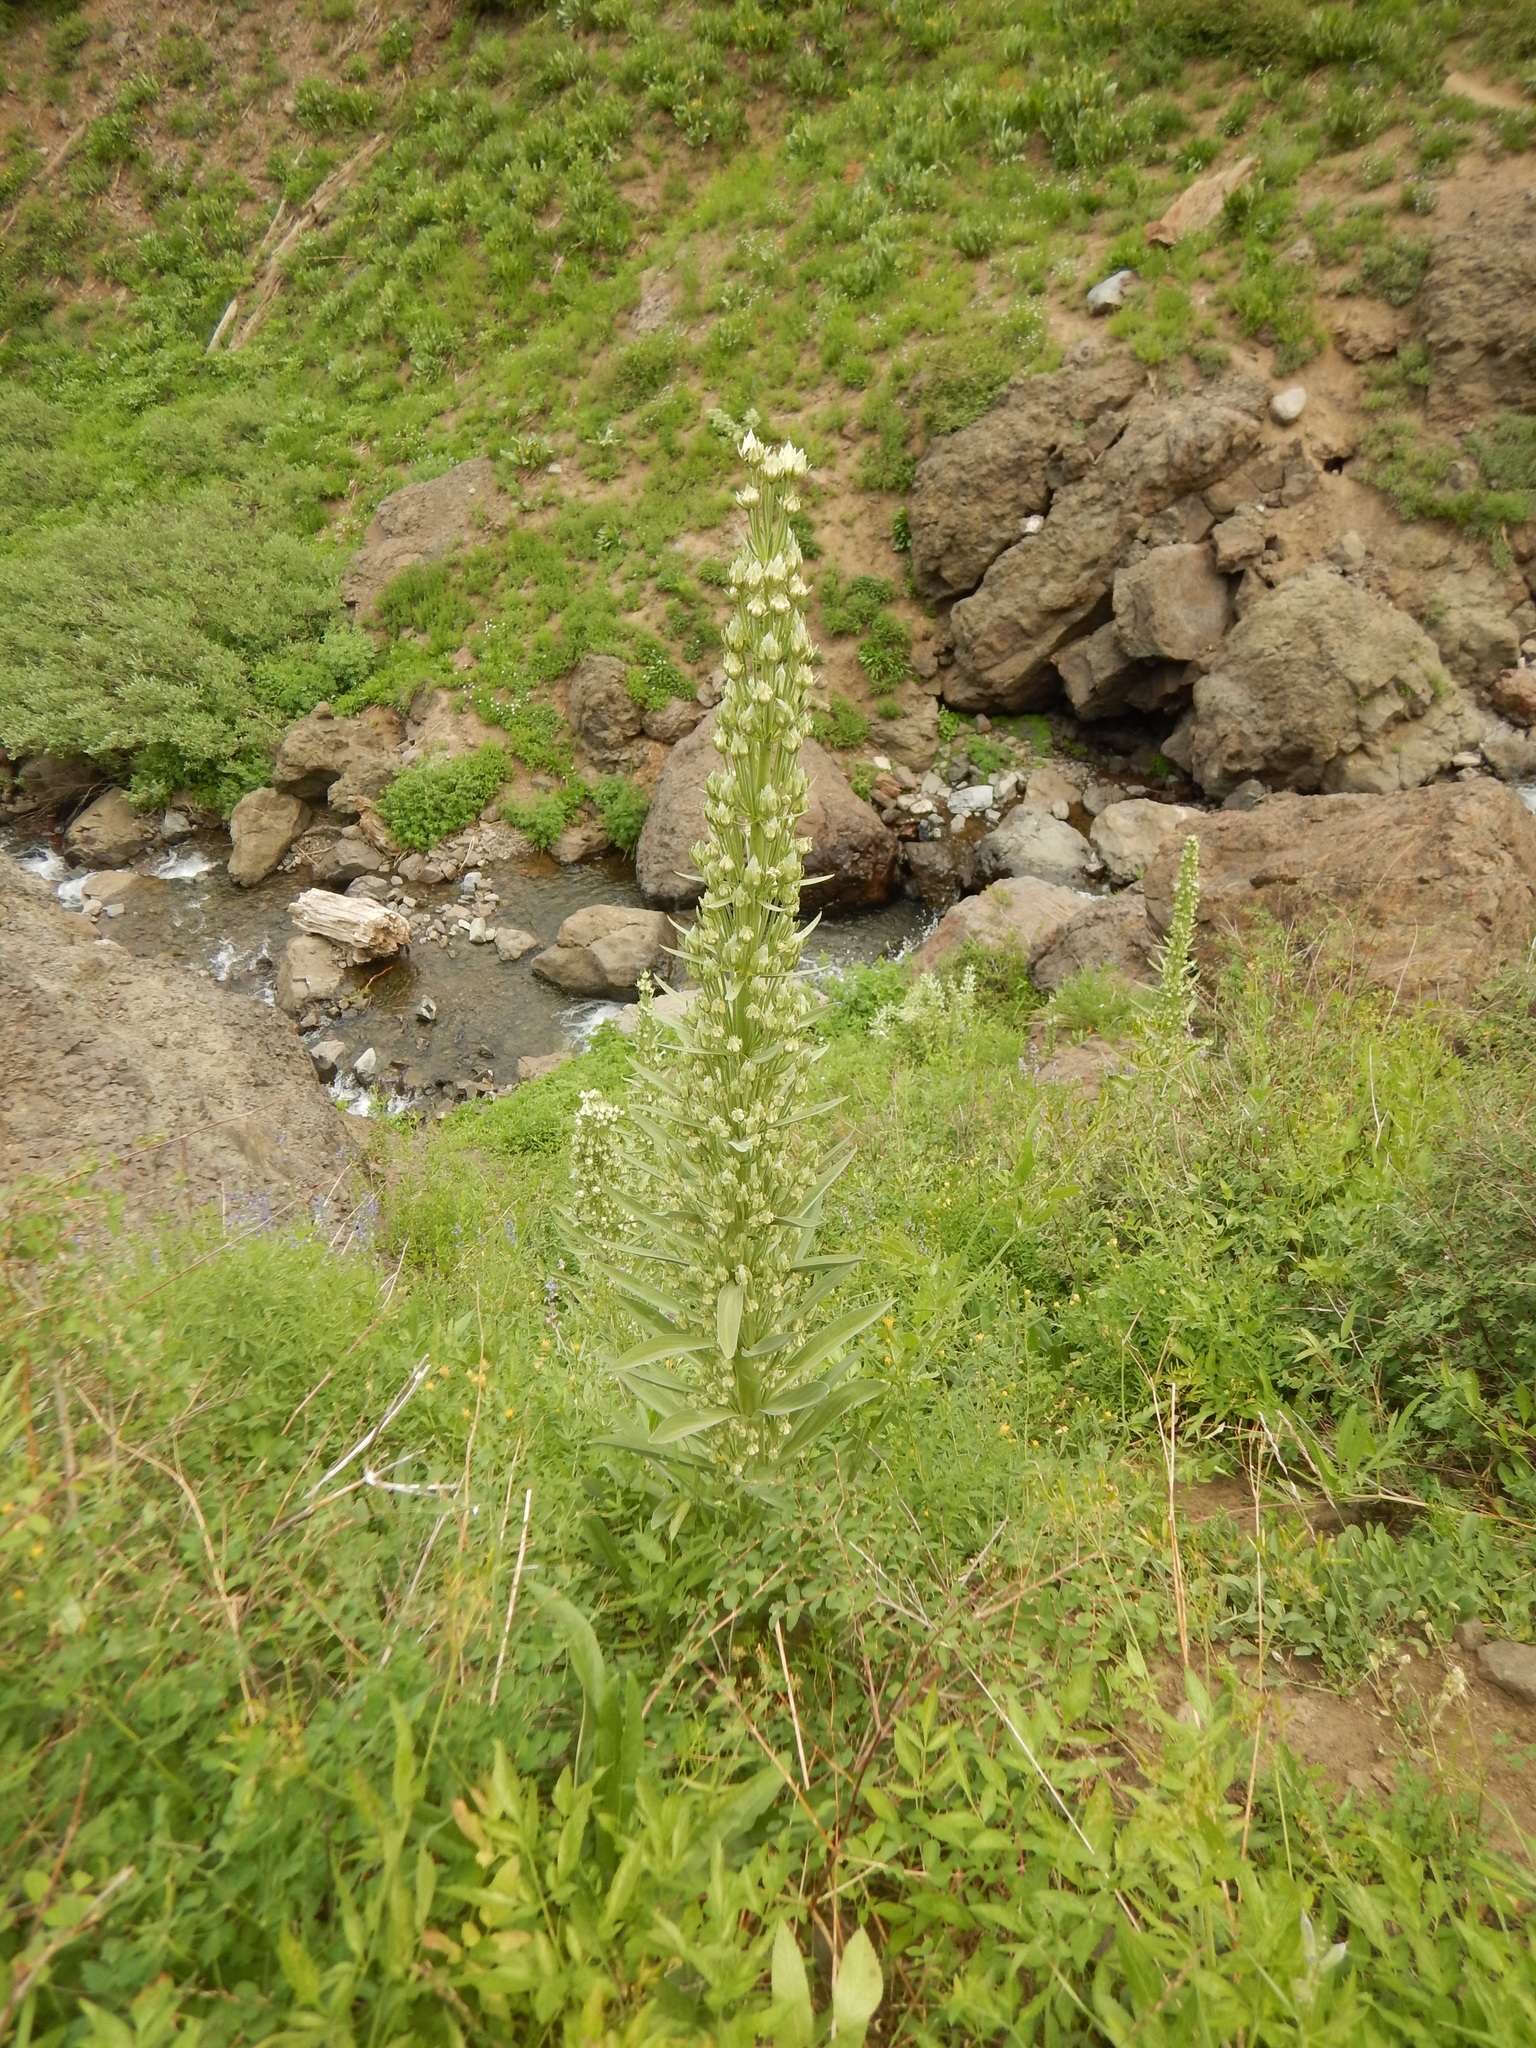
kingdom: Plantae
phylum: Tracheophyta
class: Magnoliopsida
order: Gentianales
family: Gentianaceae
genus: Frasera
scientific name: Frasera speciosa
